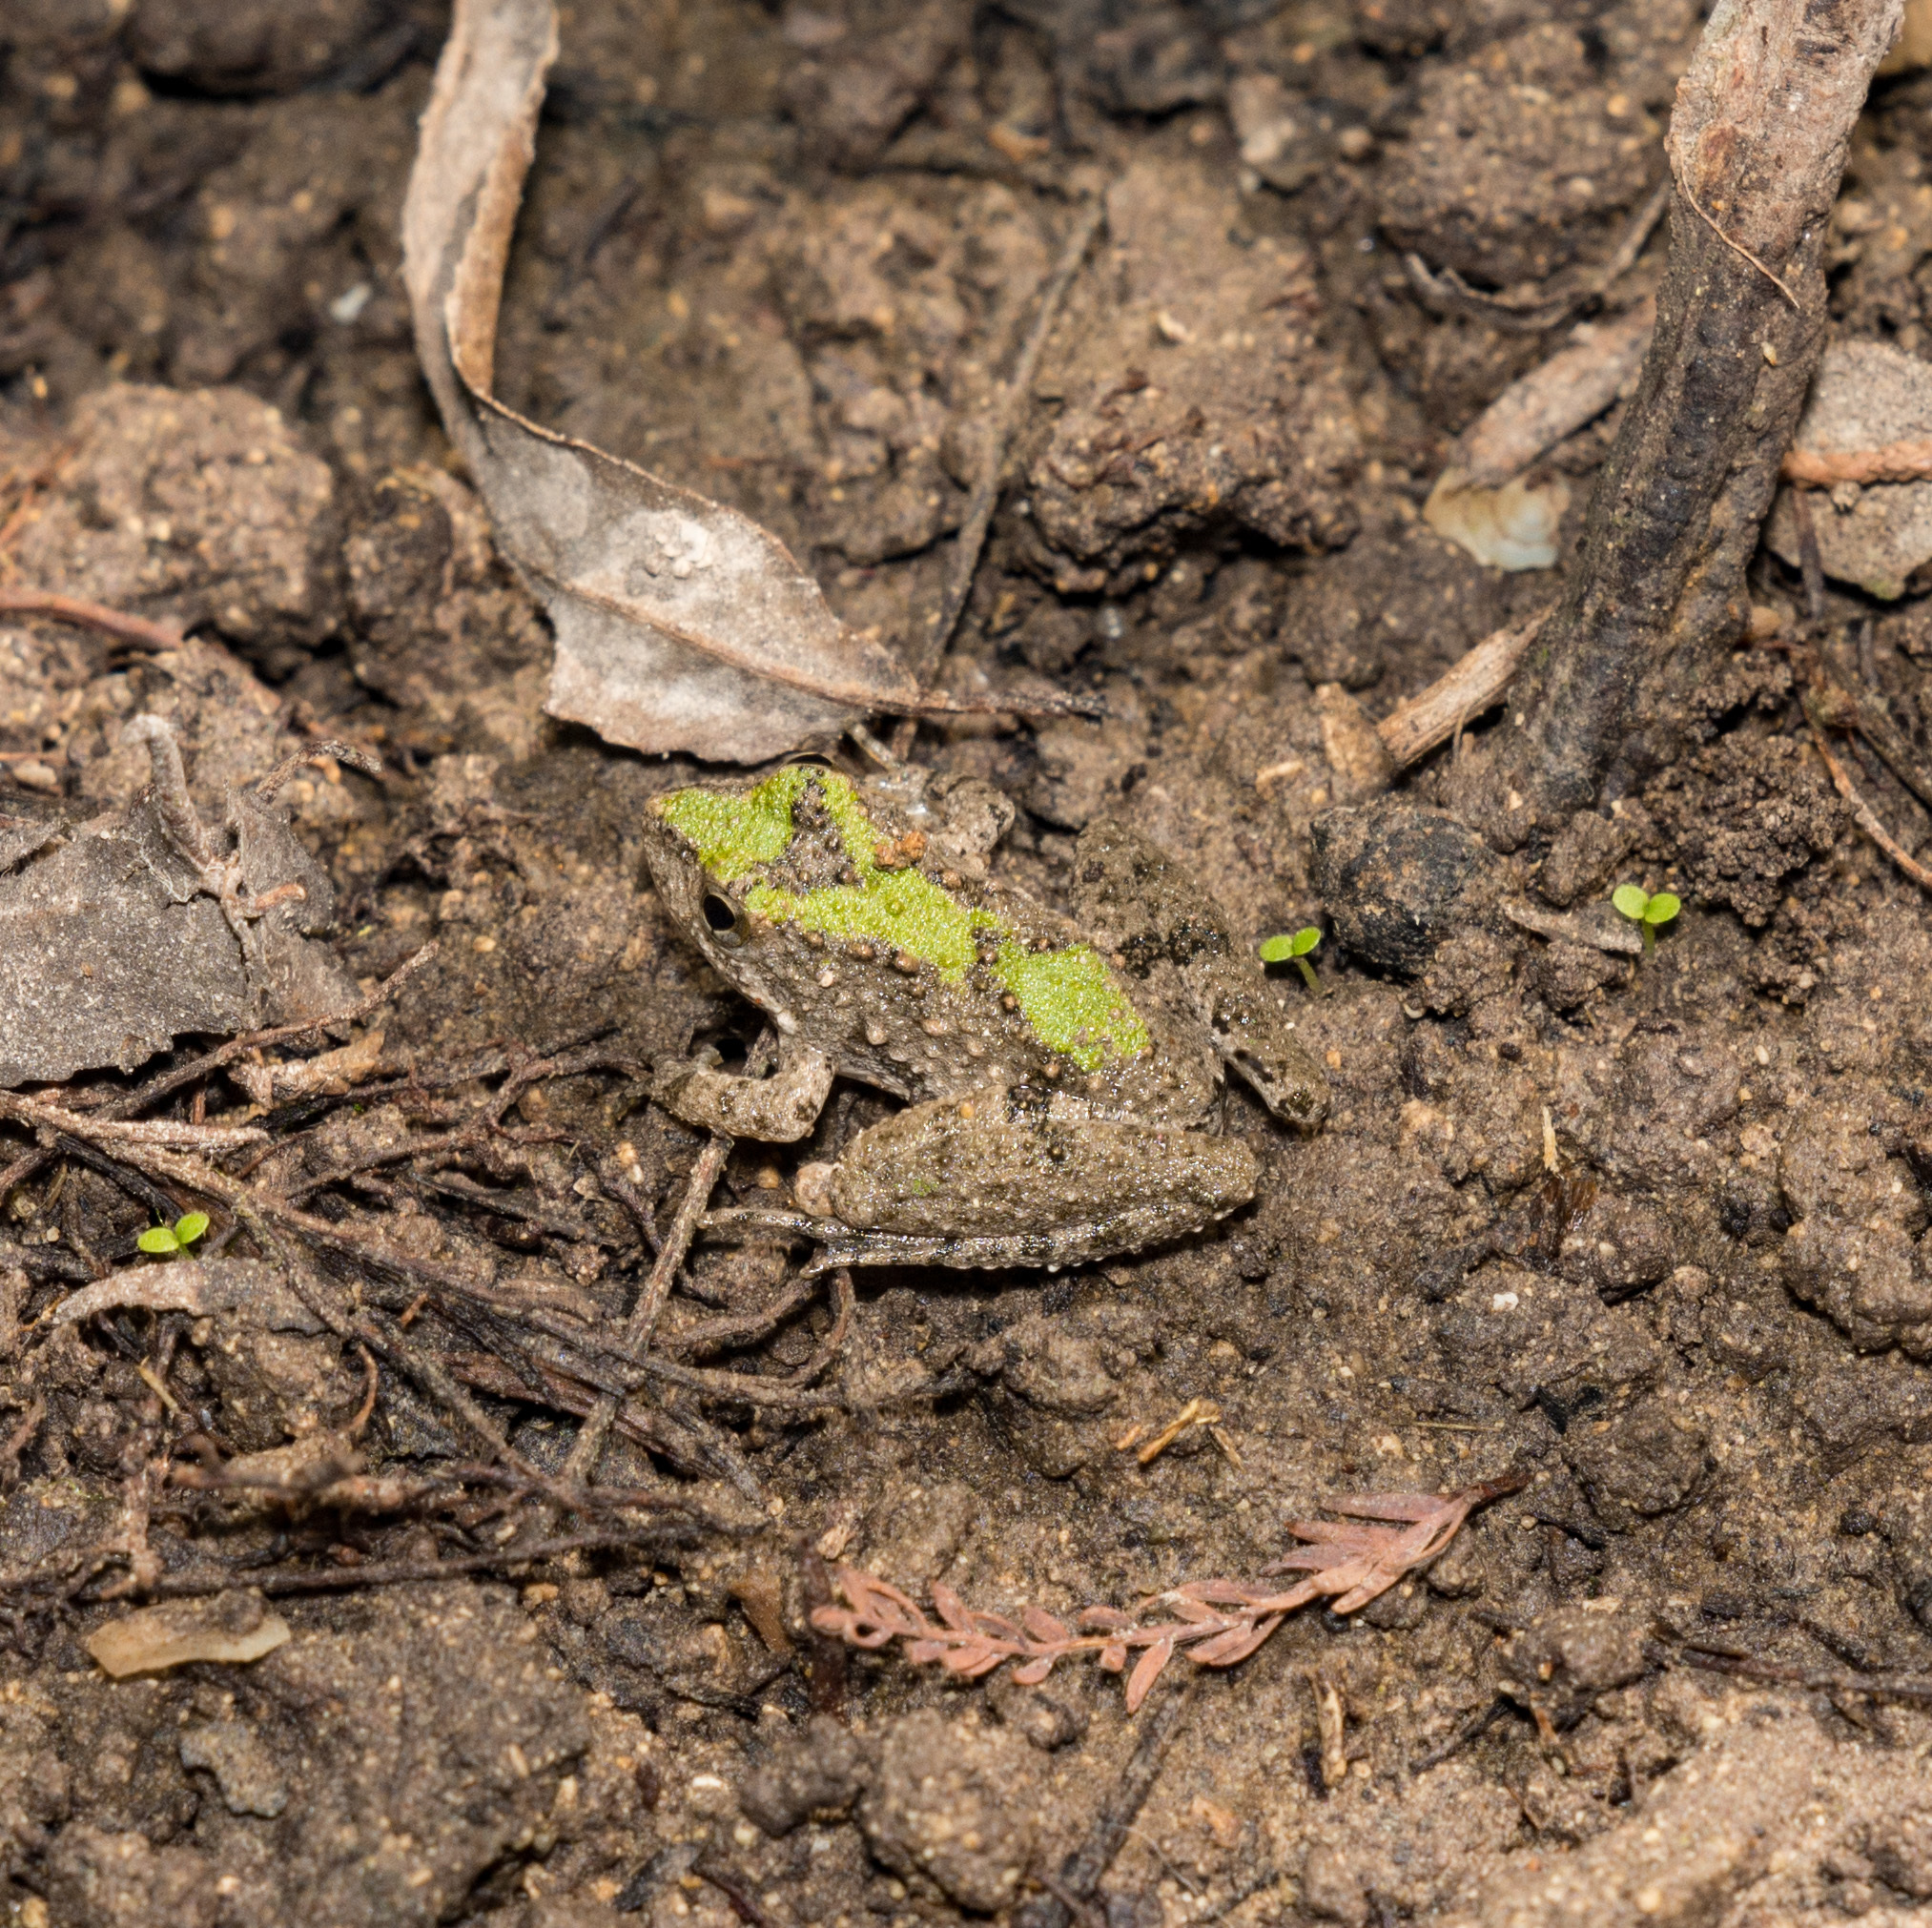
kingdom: Animalia
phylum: Chordata
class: Amphibia
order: Anura
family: Hylidae
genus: Acris
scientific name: Acris blanchardi
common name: Blanchard's cricket frog
